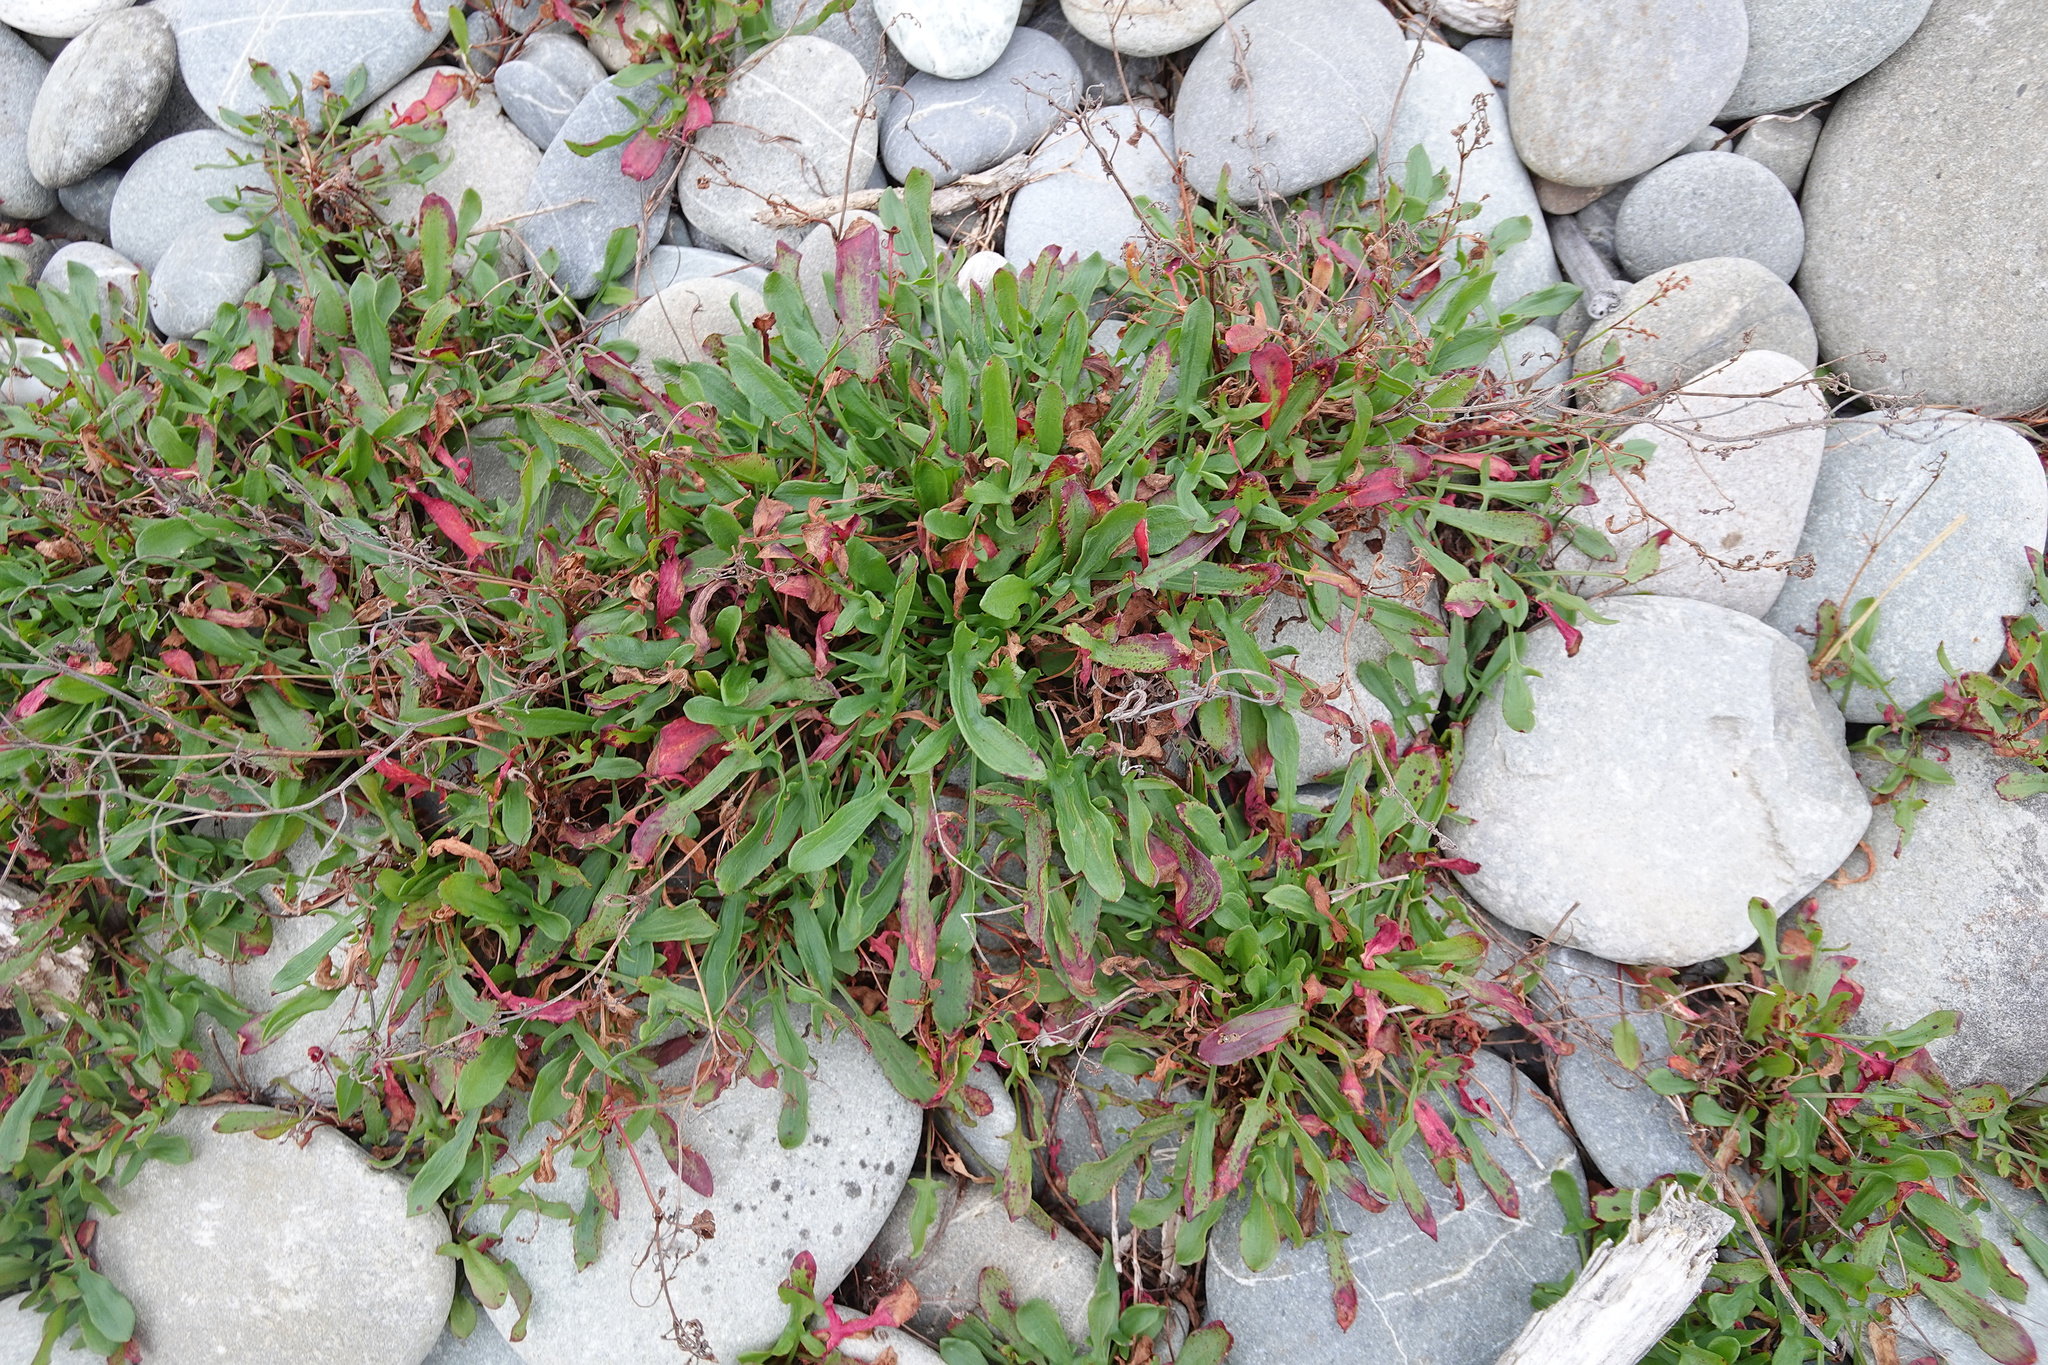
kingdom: Plantae
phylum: Tracheophyta
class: Magnoliopsida
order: Caryophyllales
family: Polygonaceae
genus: Rumex
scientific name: Rumex acetosella
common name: Common sheep sorrel
